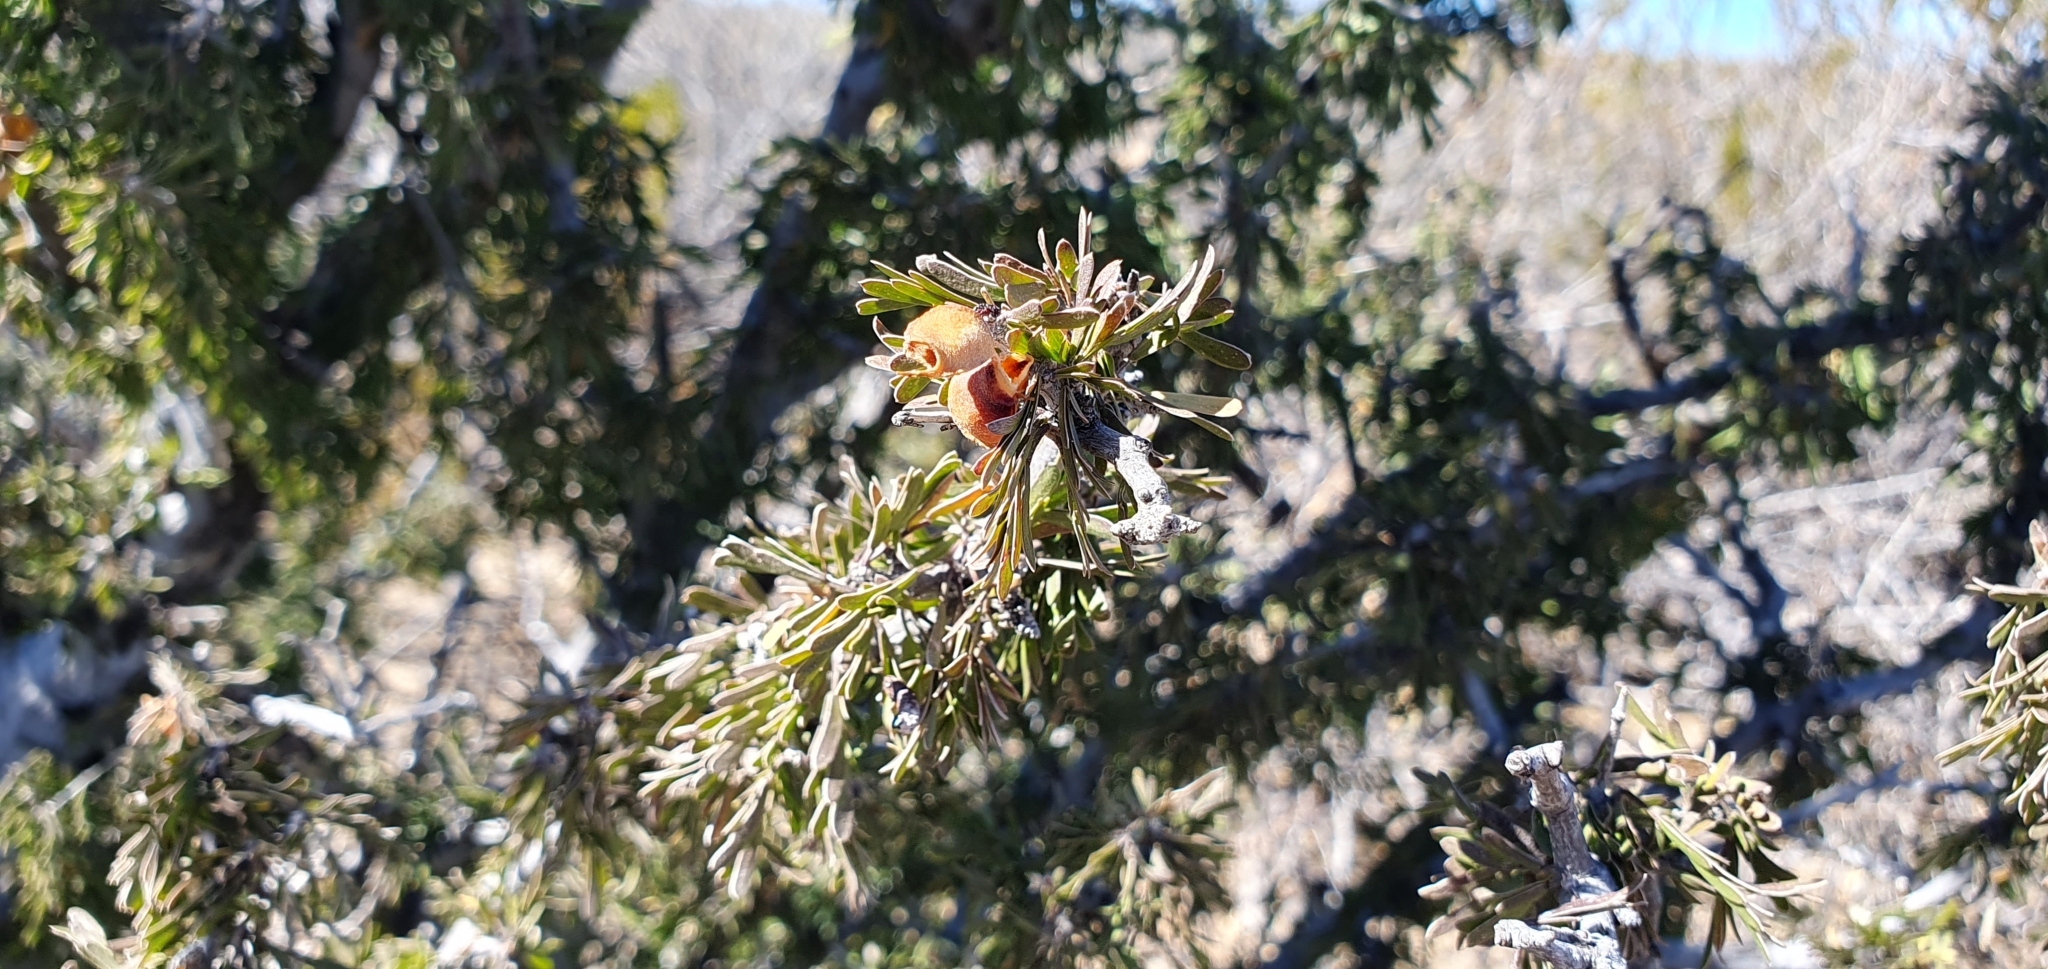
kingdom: Plantae
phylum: Tracheophyta
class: Magnoliopsida
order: Zygophyllales
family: Zygophyllaceae
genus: Porlieria
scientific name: Porlieria angustifolia
